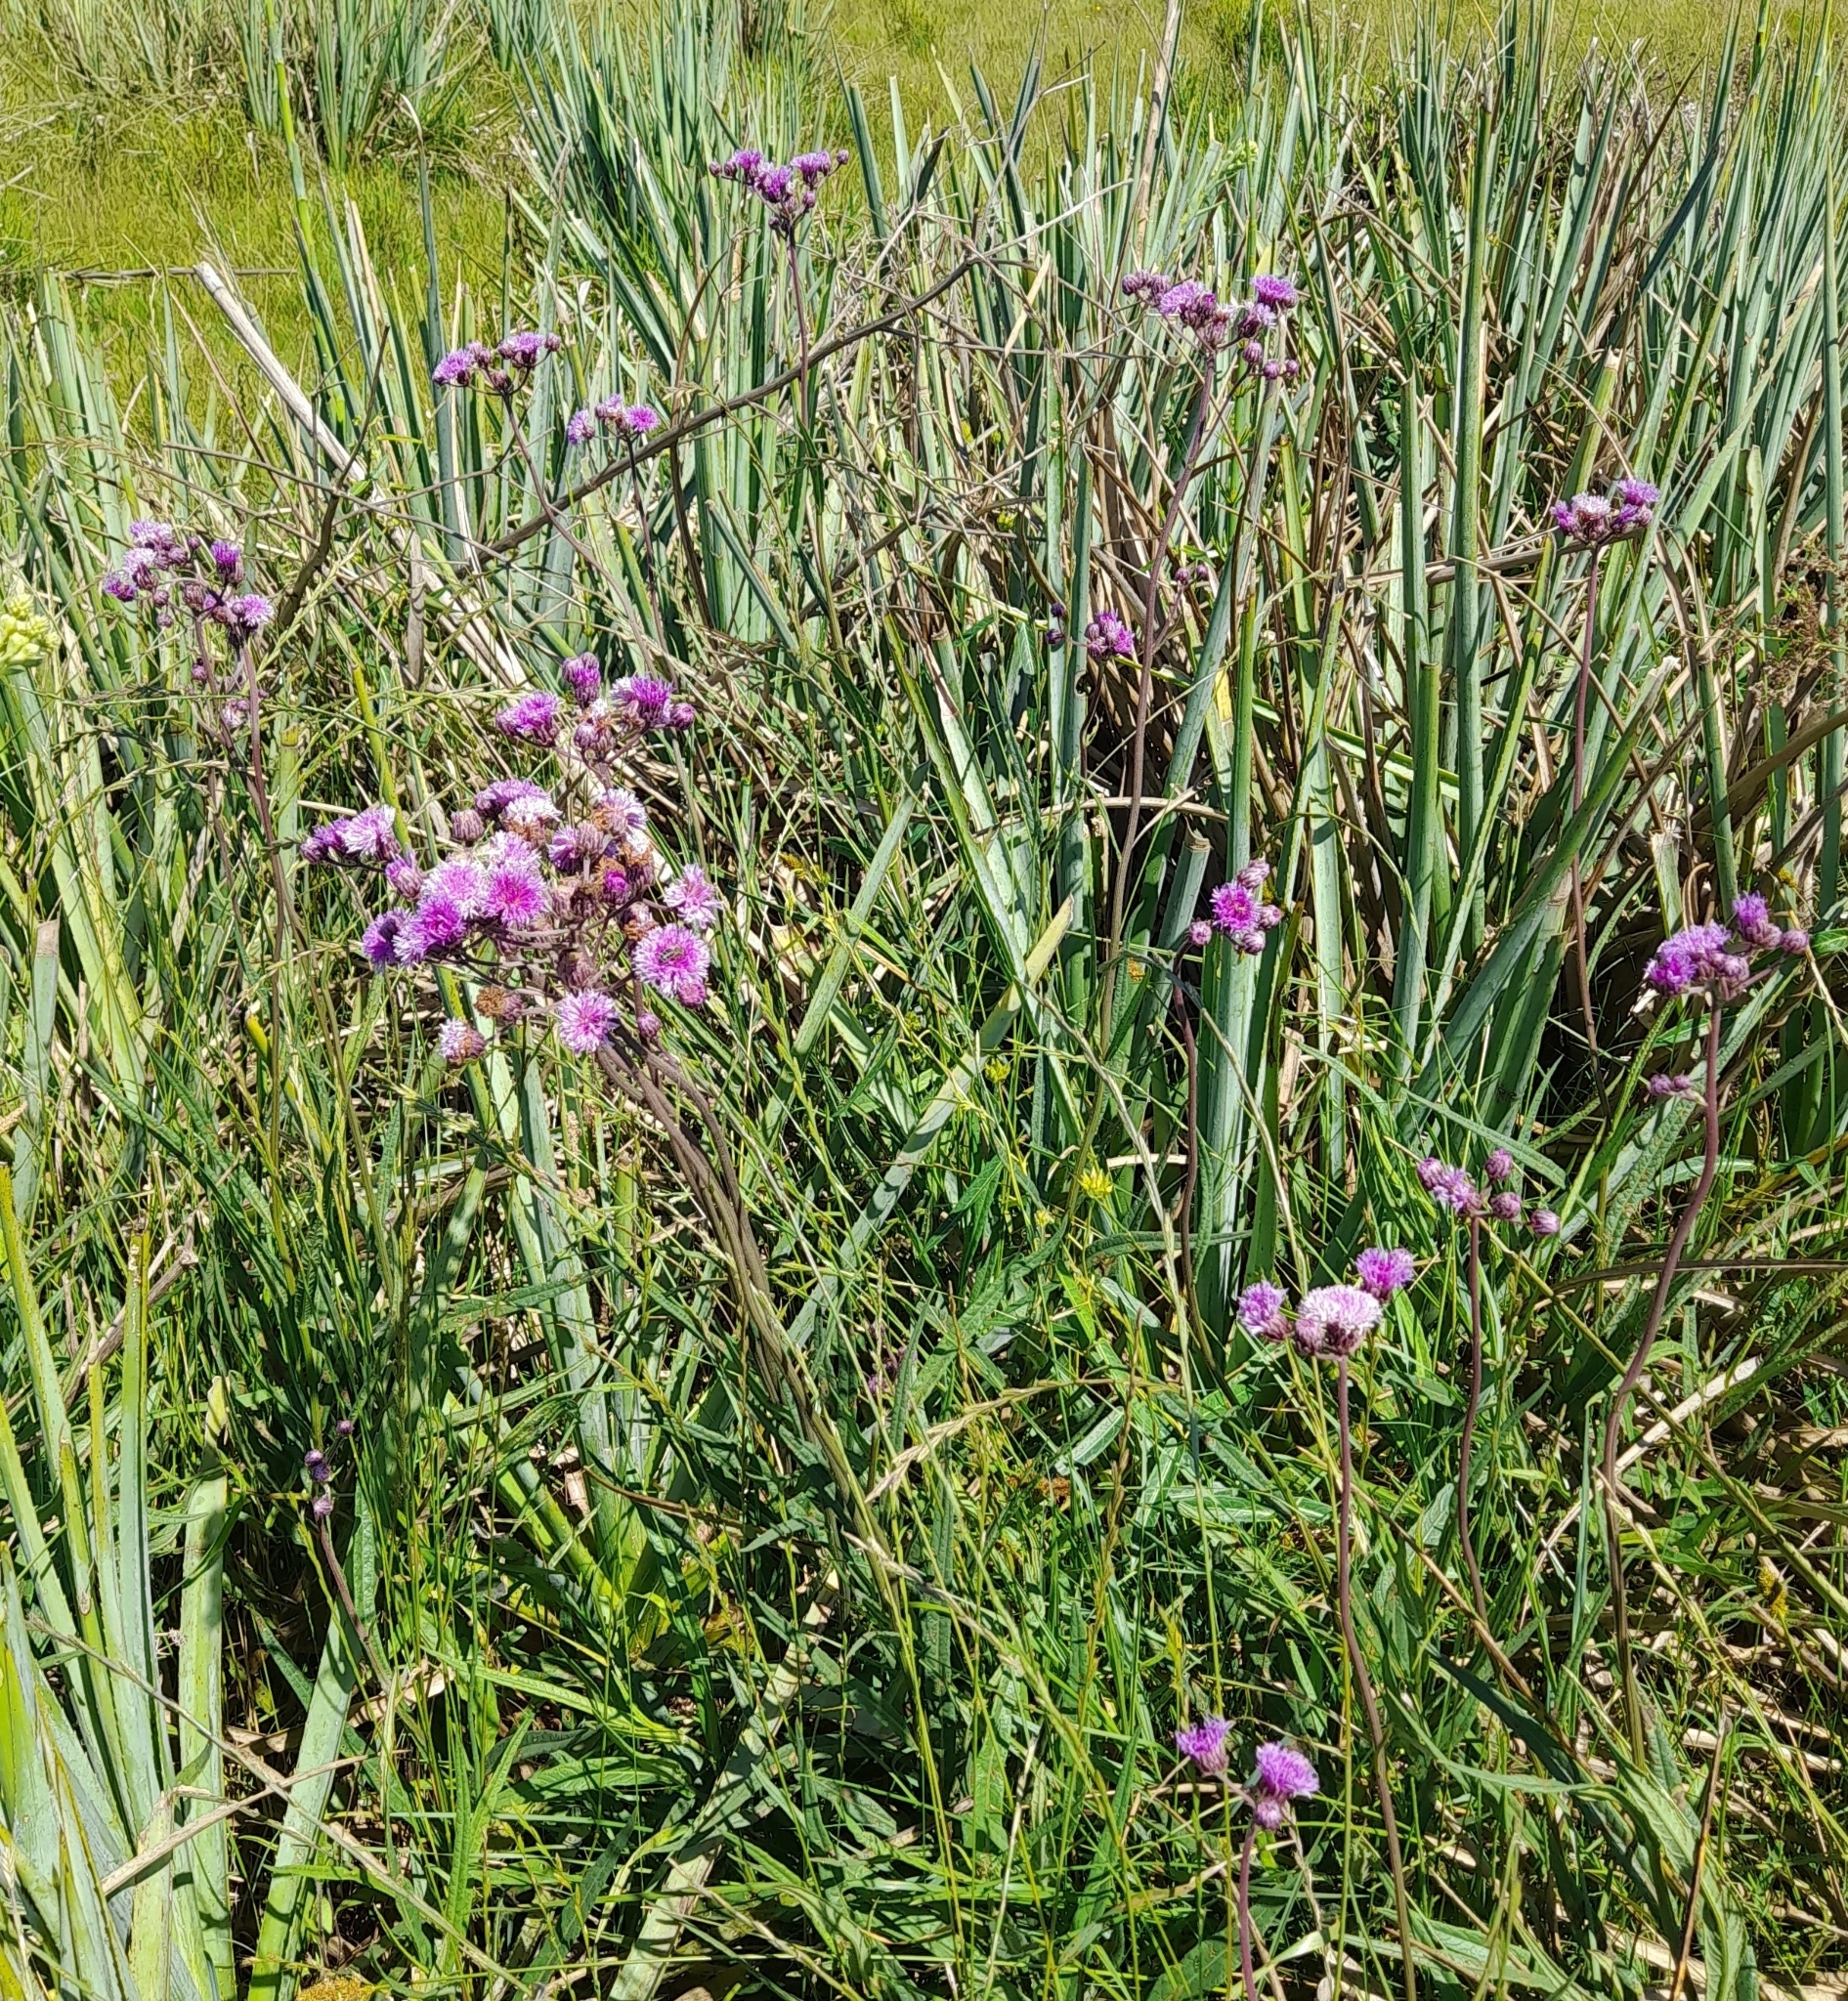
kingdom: Plantae
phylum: Tracheophyta
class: Magnoliopsida
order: Asterales
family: Asteraceae
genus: Vernonia
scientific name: Vernonia echioides
